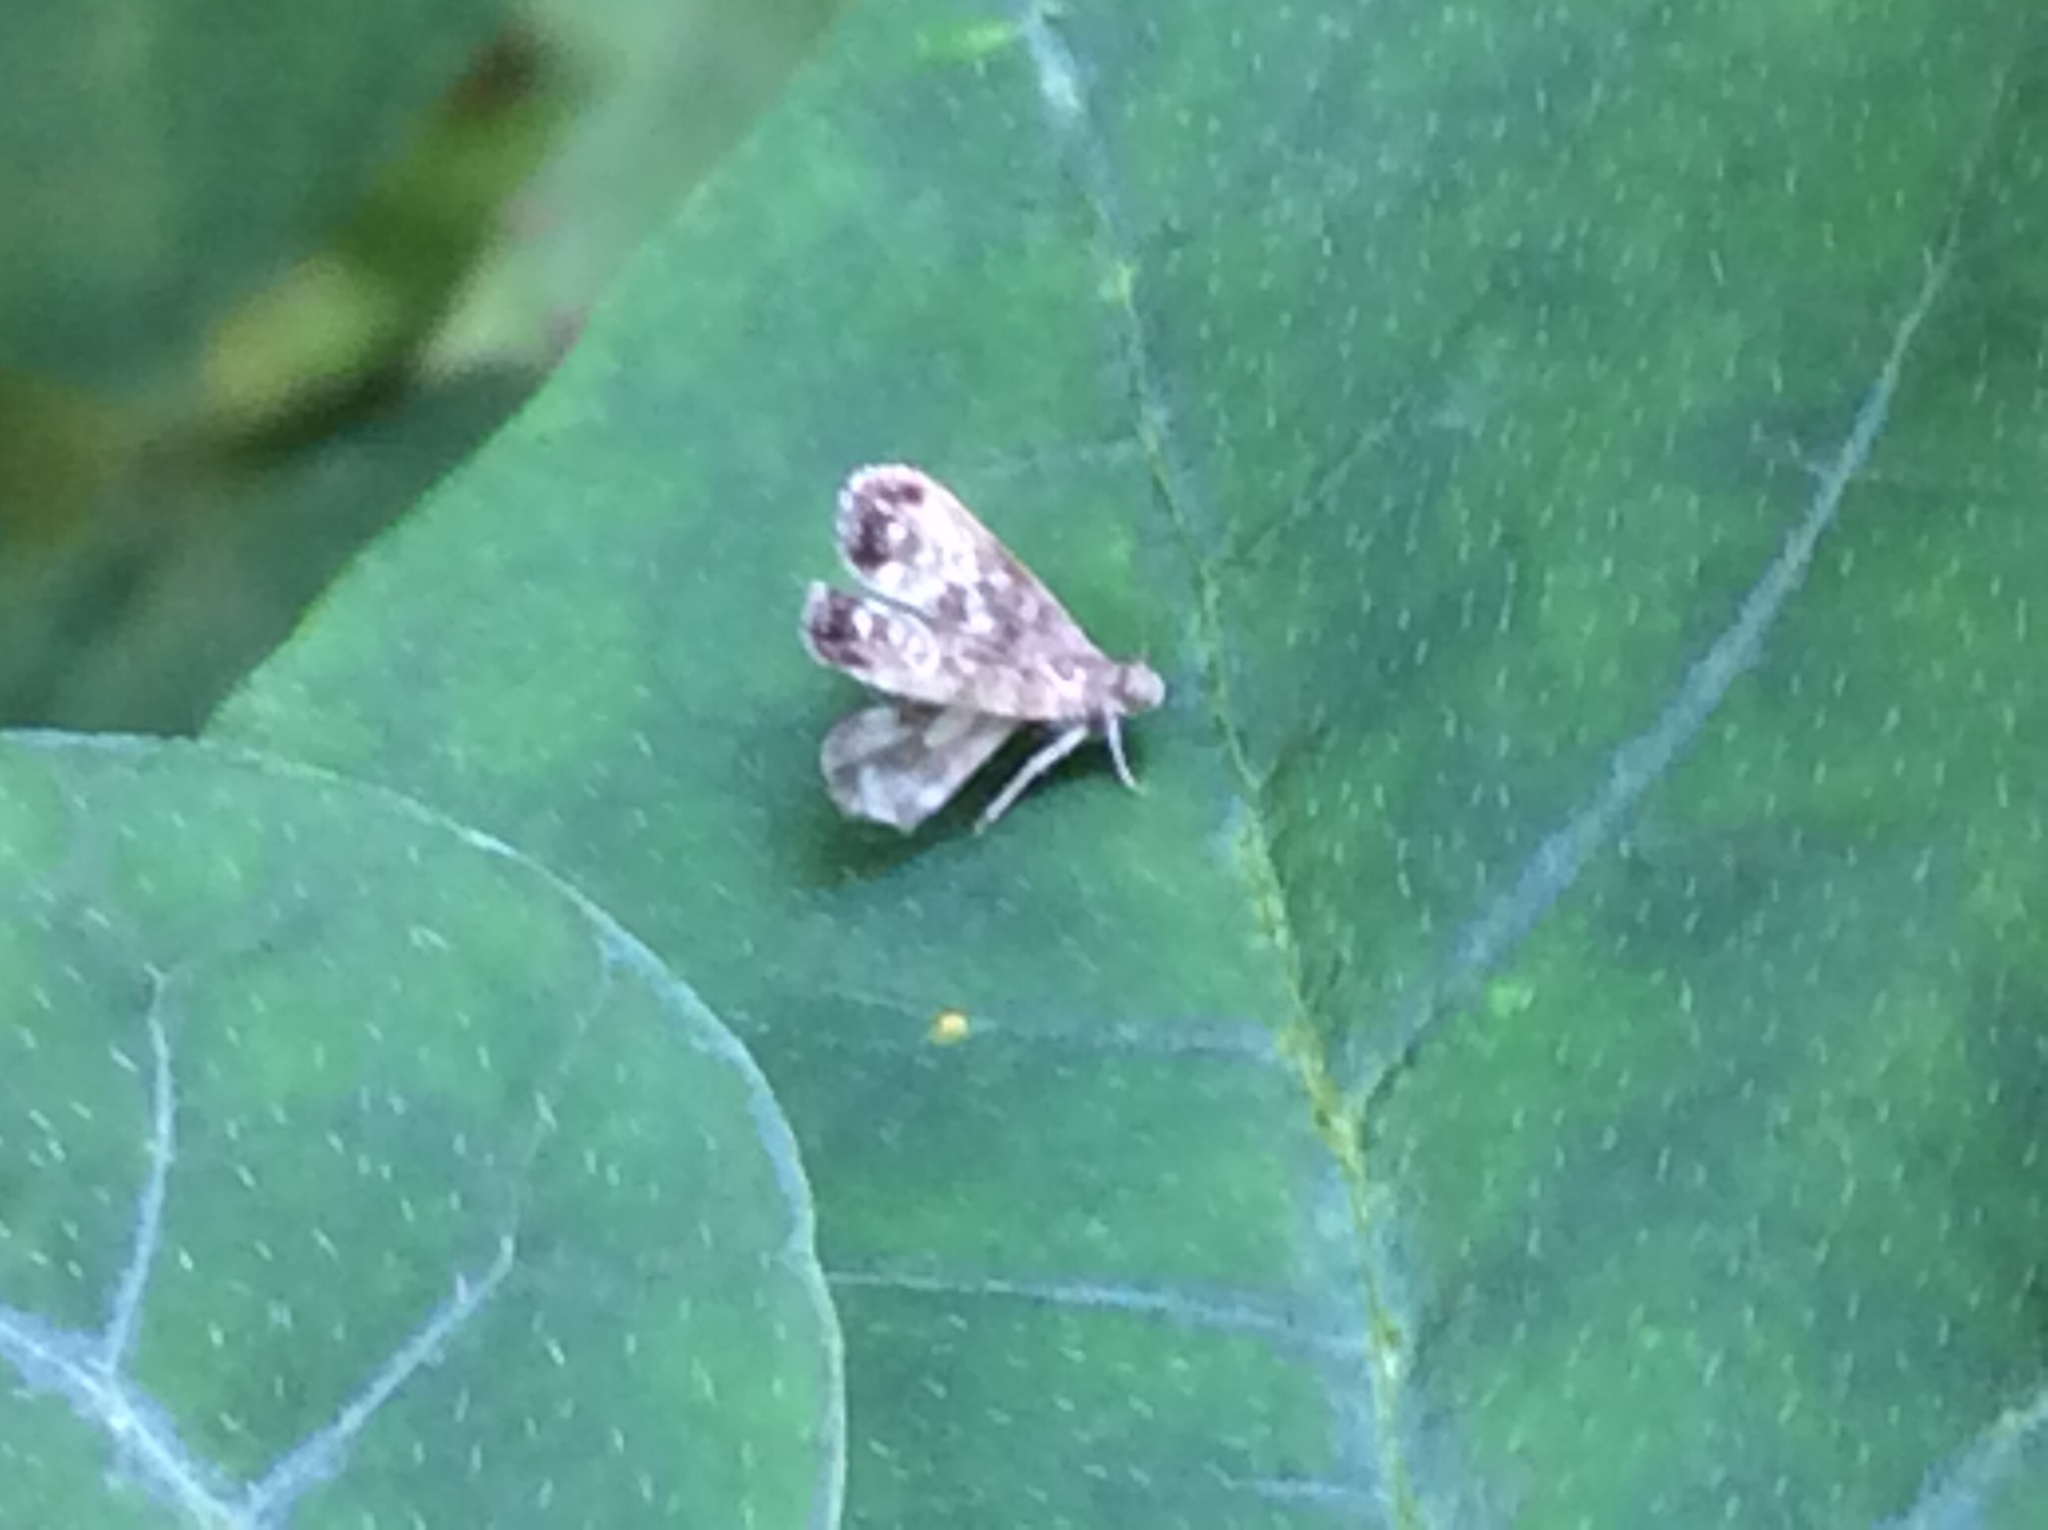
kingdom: Animalia
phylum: Arthropoda
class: Insecta
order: Lepidoptera
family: Choreutidae
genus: Brenthia
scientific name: Brenthia pavonacella
